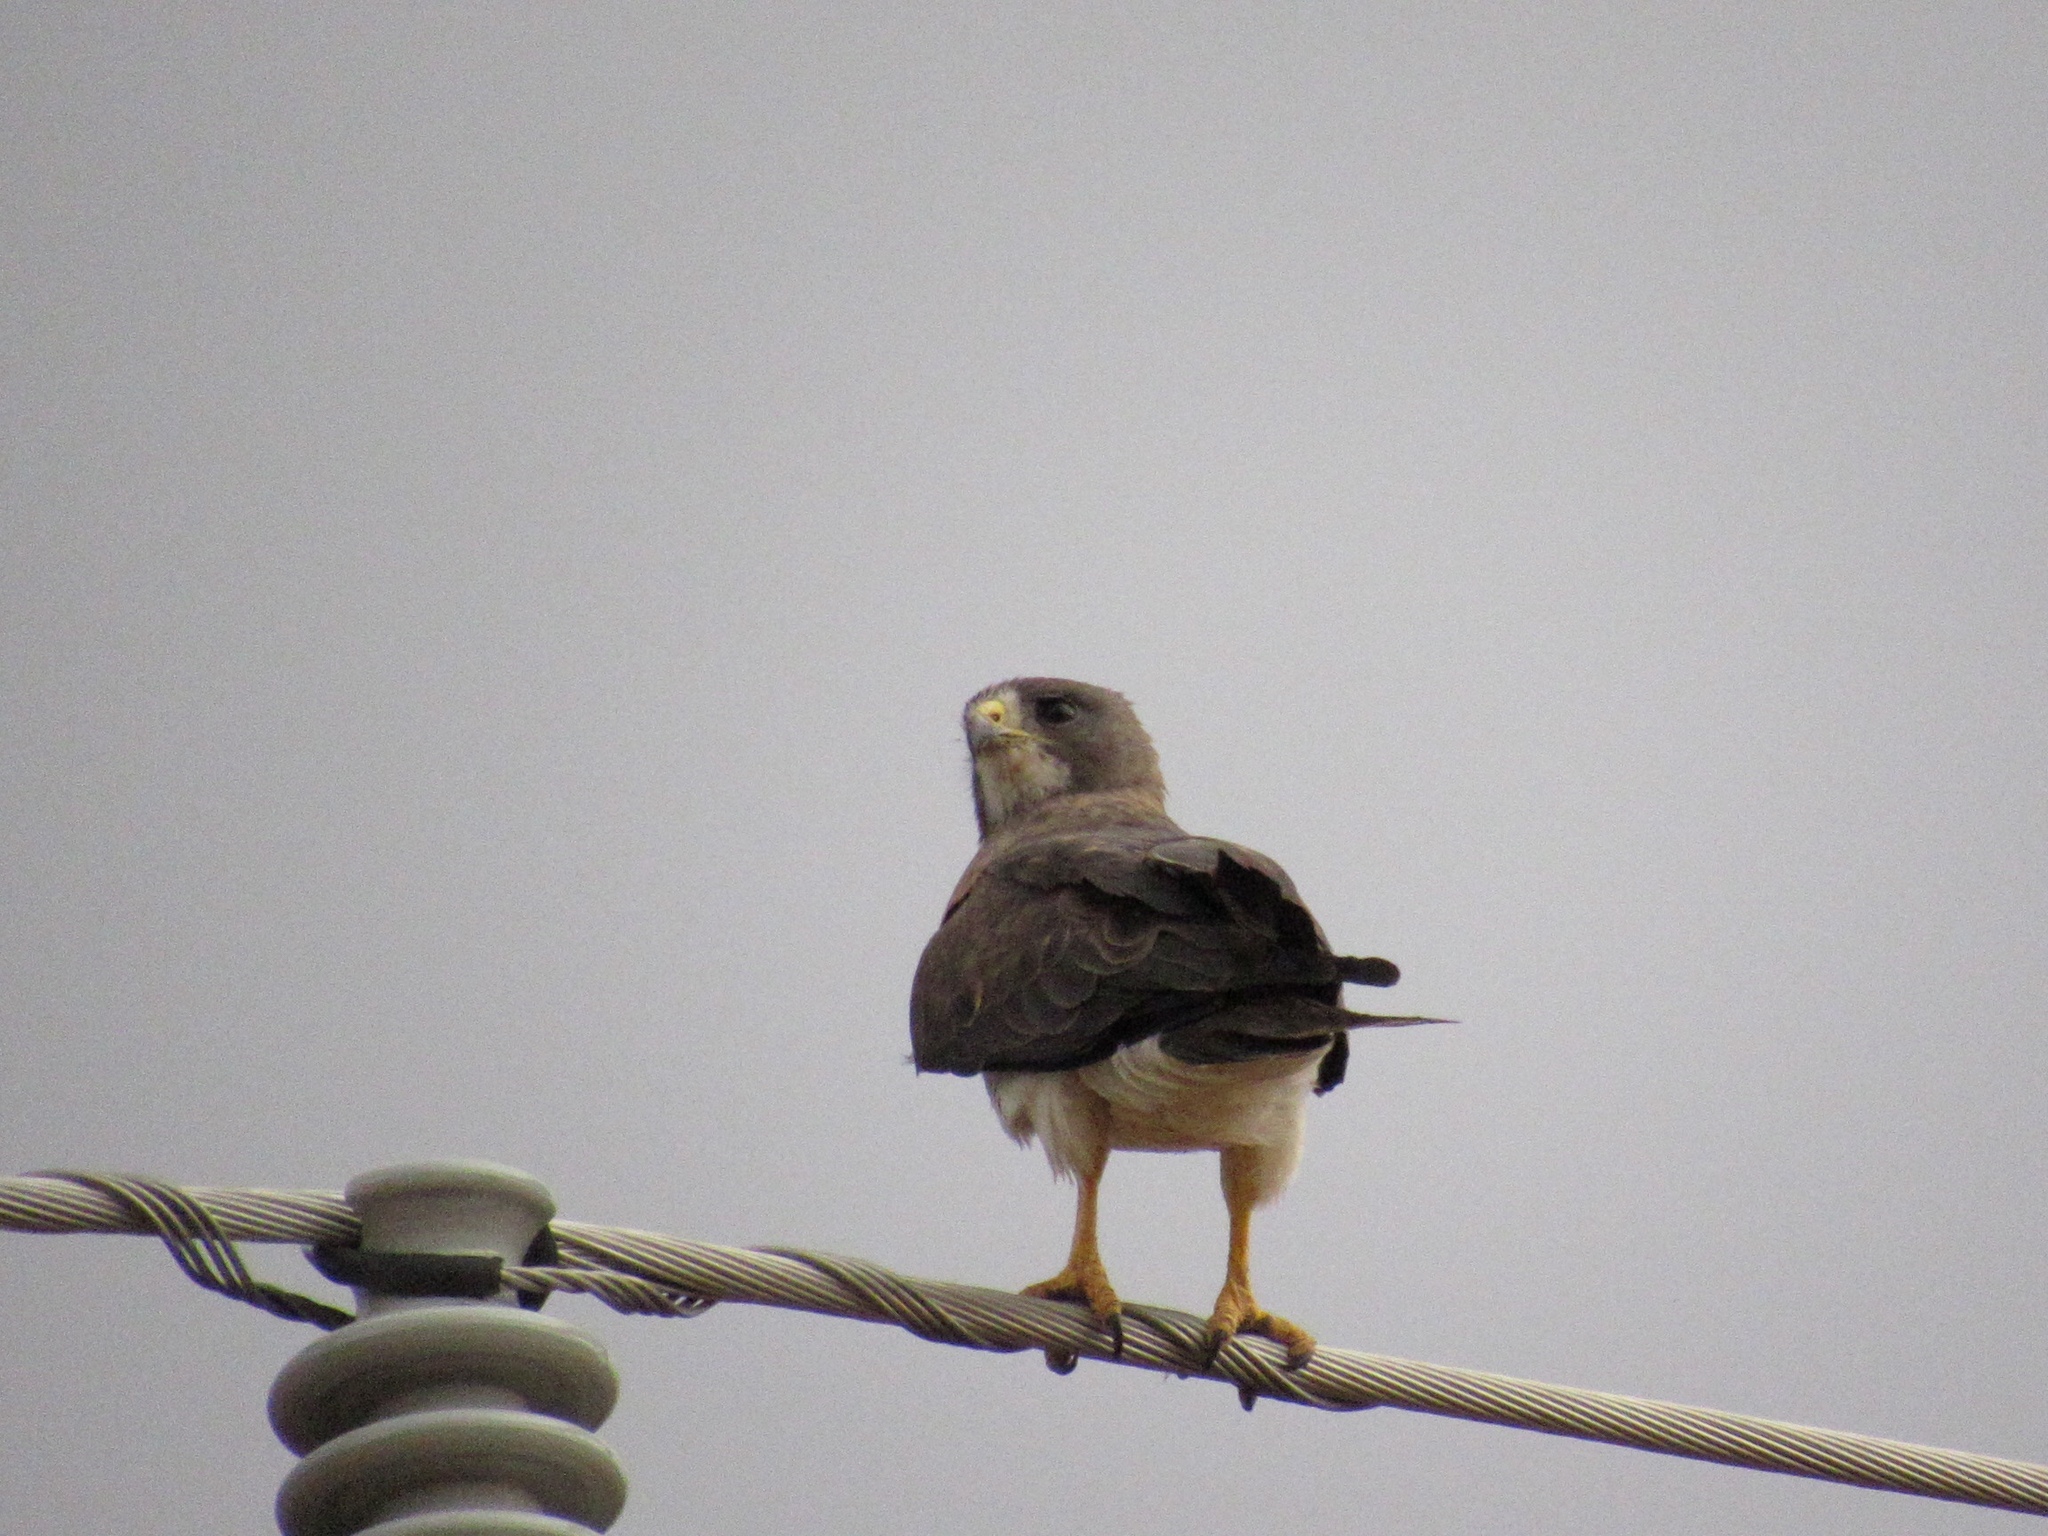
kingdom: Animalia
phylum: Chordata
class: Aves
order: Accipitriformes
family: Accipitridae
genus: Buteo
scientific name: Buteo swainsoni
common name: Swainson's hawk
